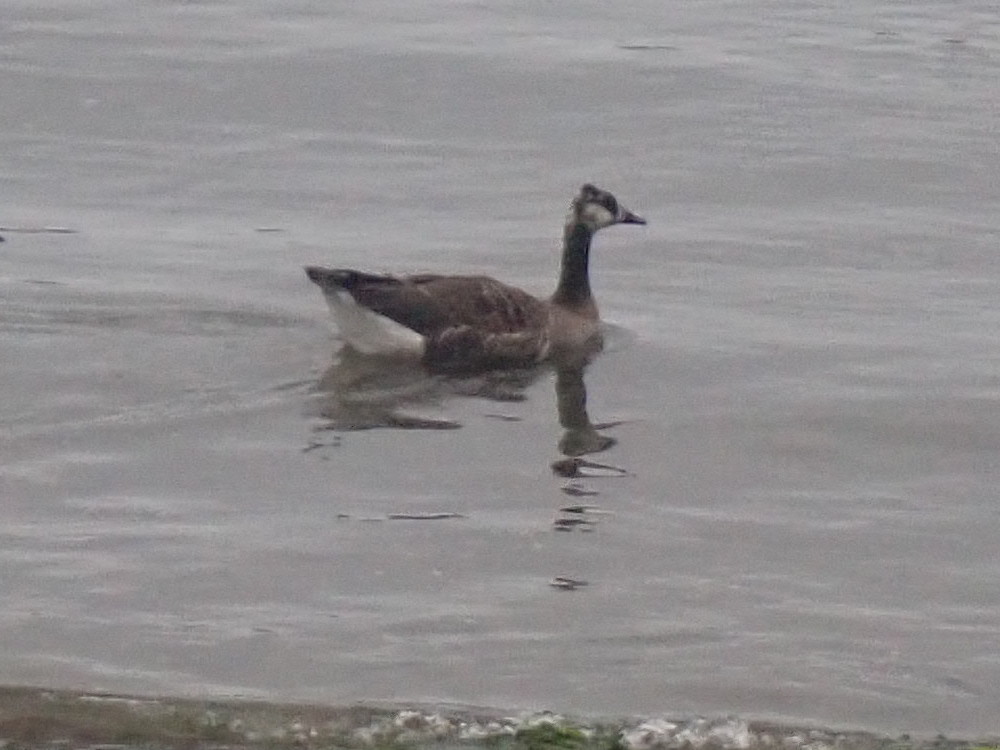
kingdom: Animalia
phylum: Chordata
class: Aves
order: Anseriformes
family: Anatidae
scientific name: Anatidae
